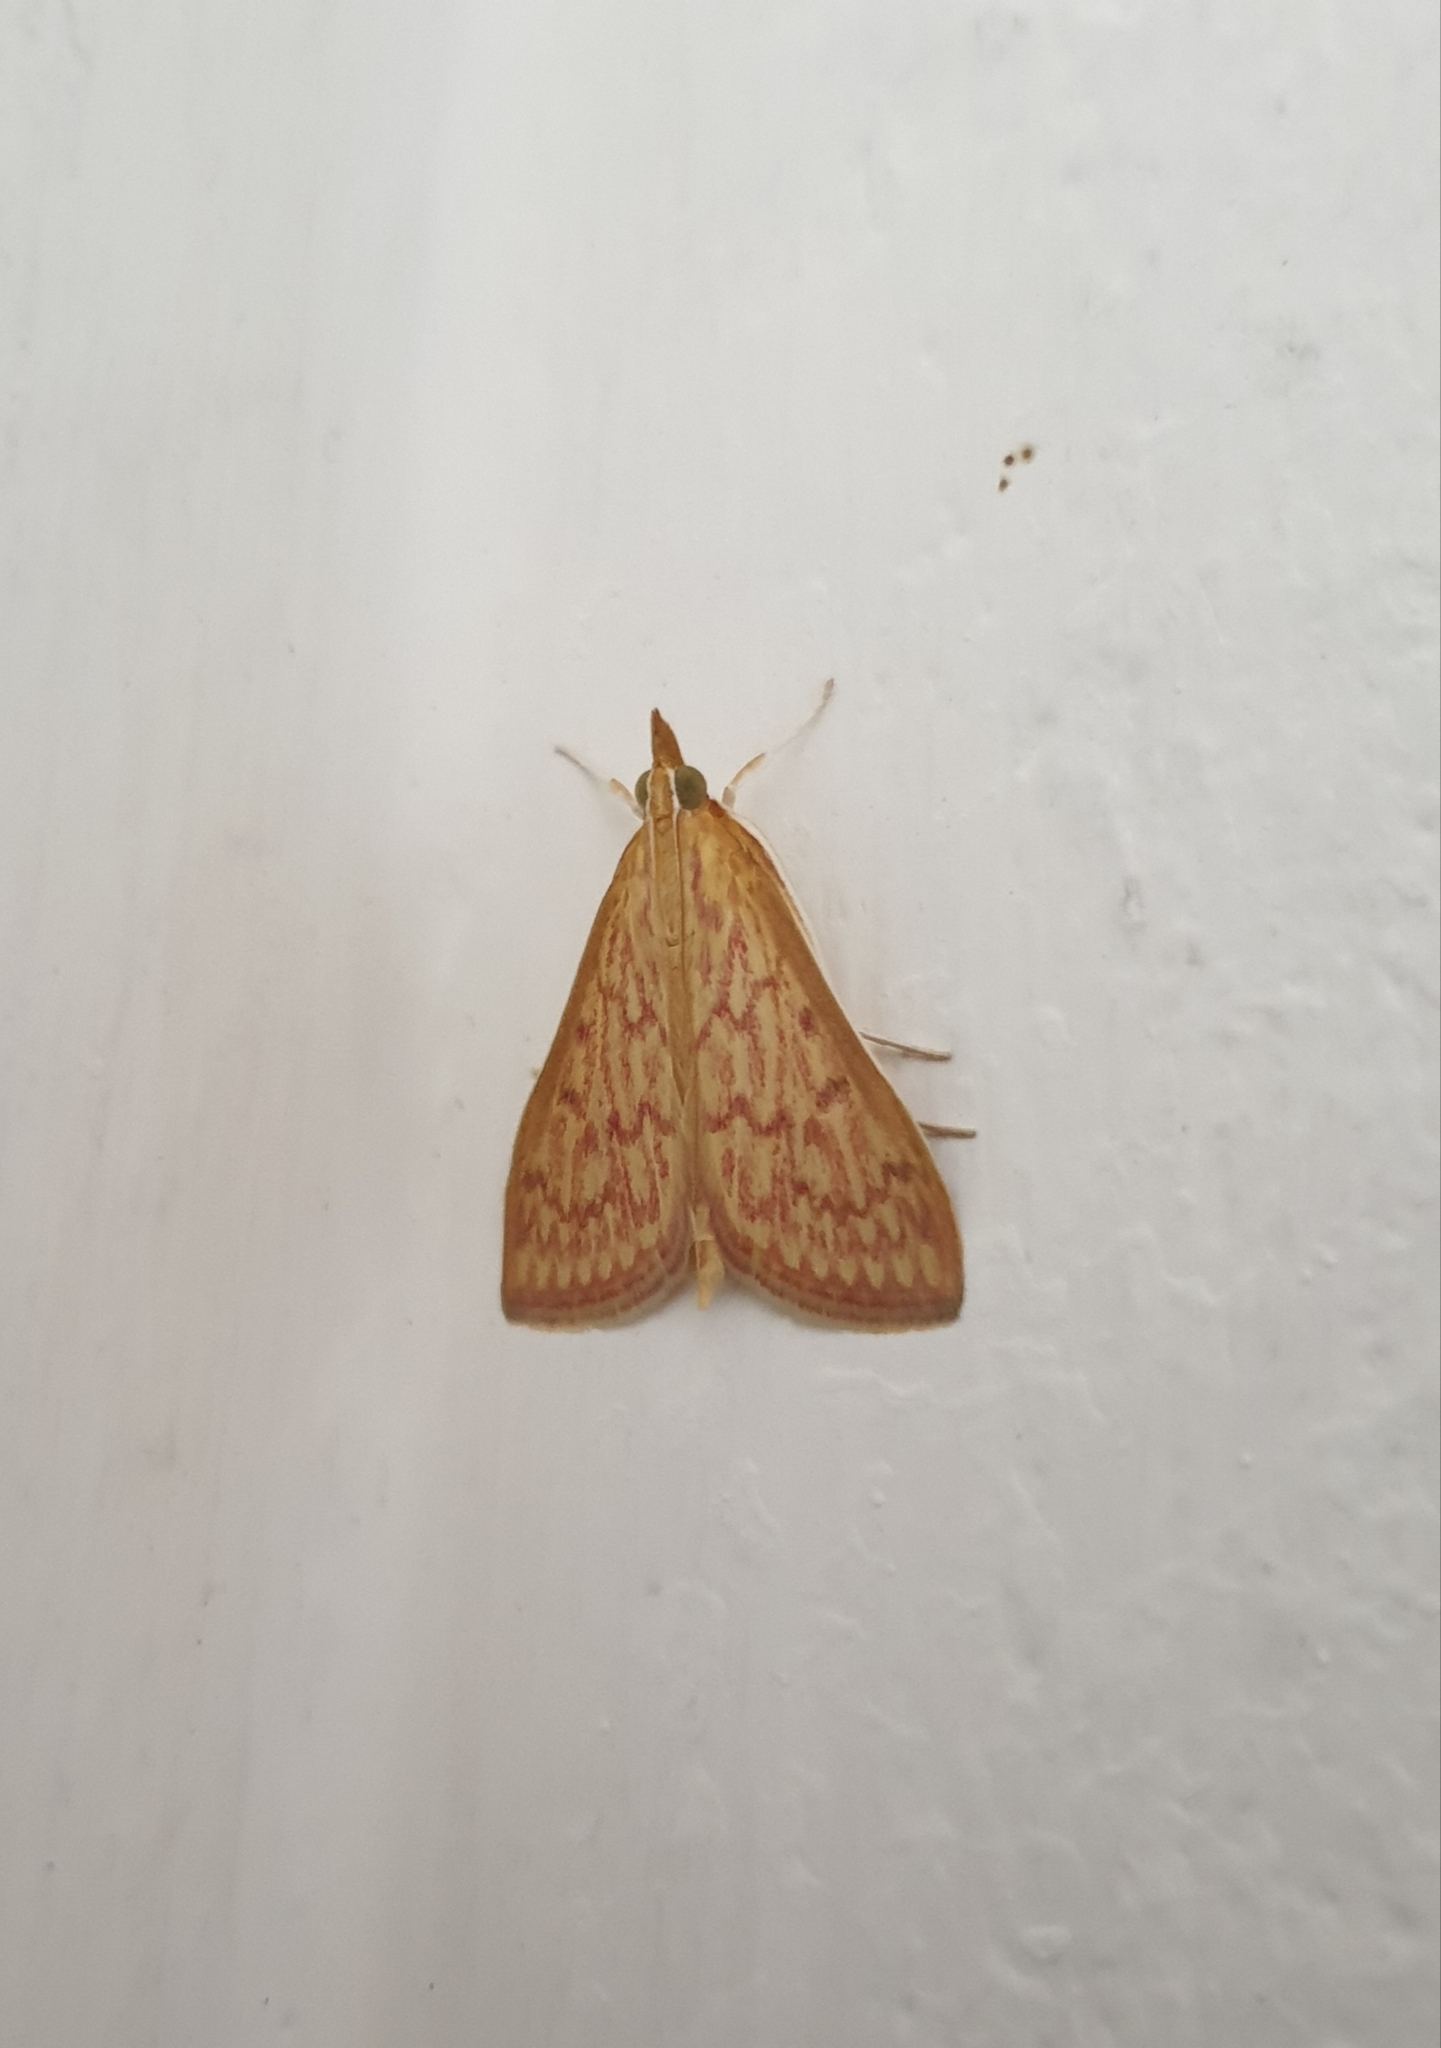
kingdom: Animalia
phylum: Arthropoda
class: Insecta
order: Lepidoptera
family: Crambidae
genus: Paliga
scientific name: Paliga damastesalis
